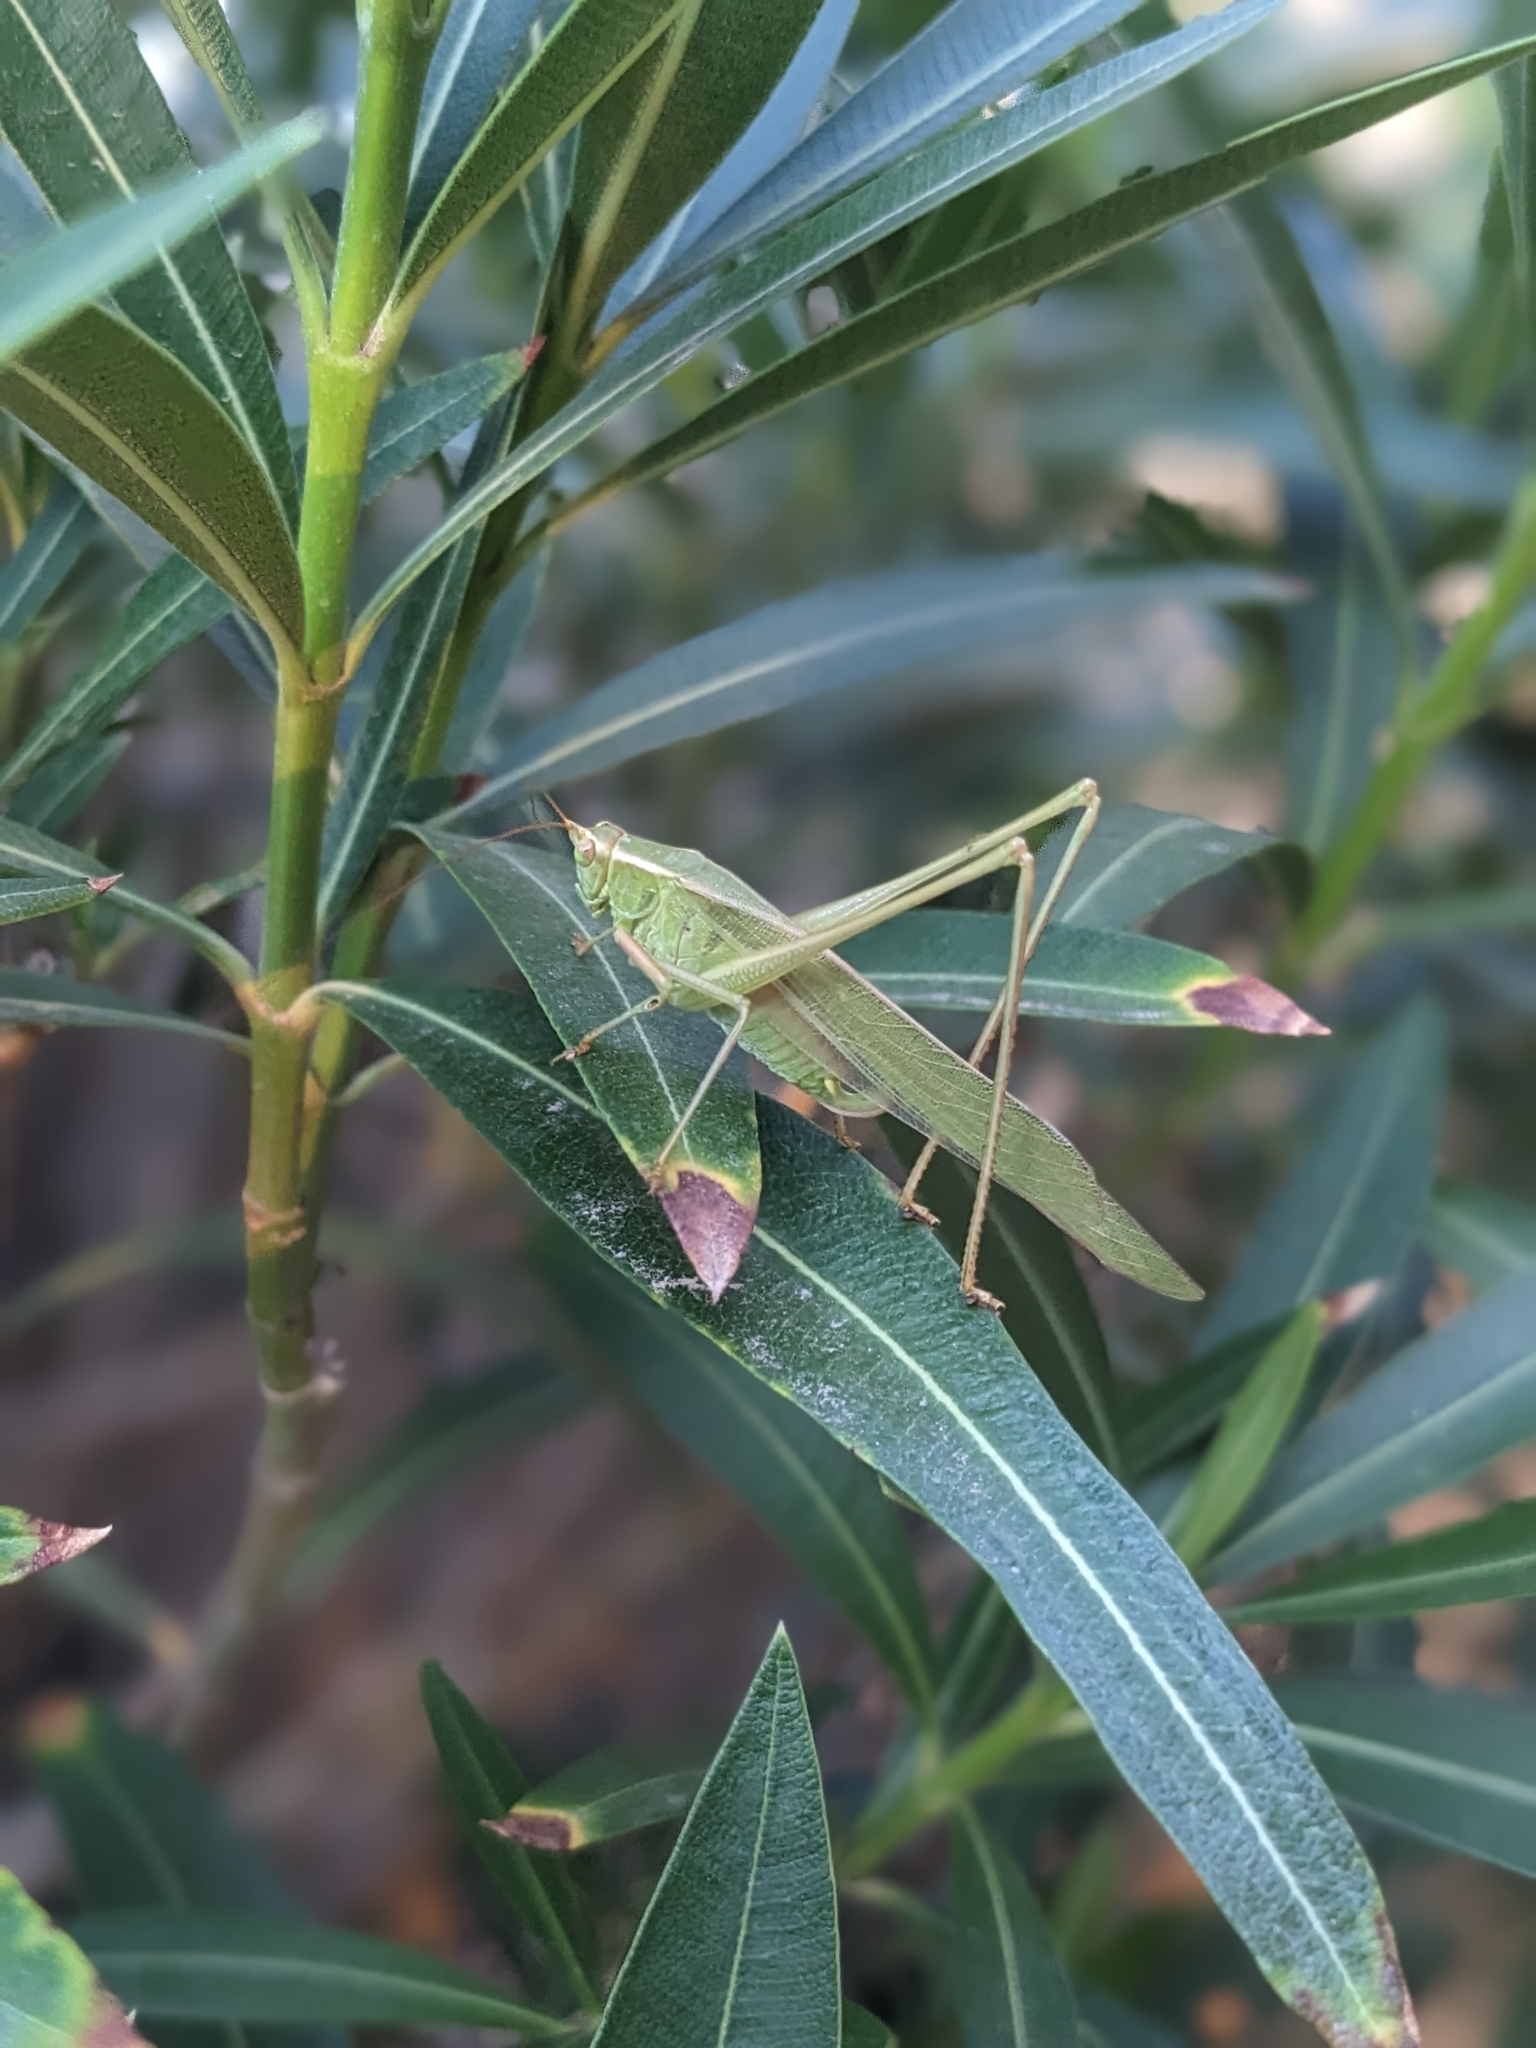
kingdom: Animalia
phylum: Arthropoda
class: Insecta
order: Orthoptera
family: Tettigoniidae
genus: Scudderia
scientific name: Scudderia mexicana
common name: Mexican bush katydid
